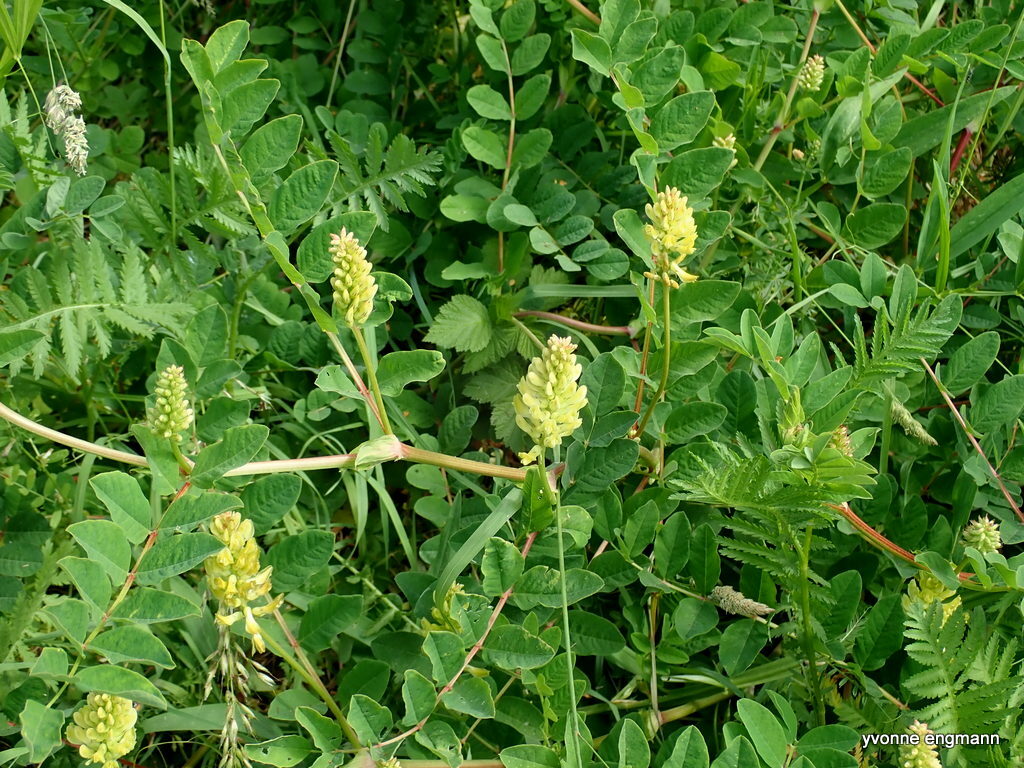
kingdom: Plantae
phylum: Tracheophyta
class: Magnoliopsida
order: Fabales
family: Fabaceae
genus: Astragalus
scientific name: Astragalus glycyphyllos
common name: Wild liquorice
